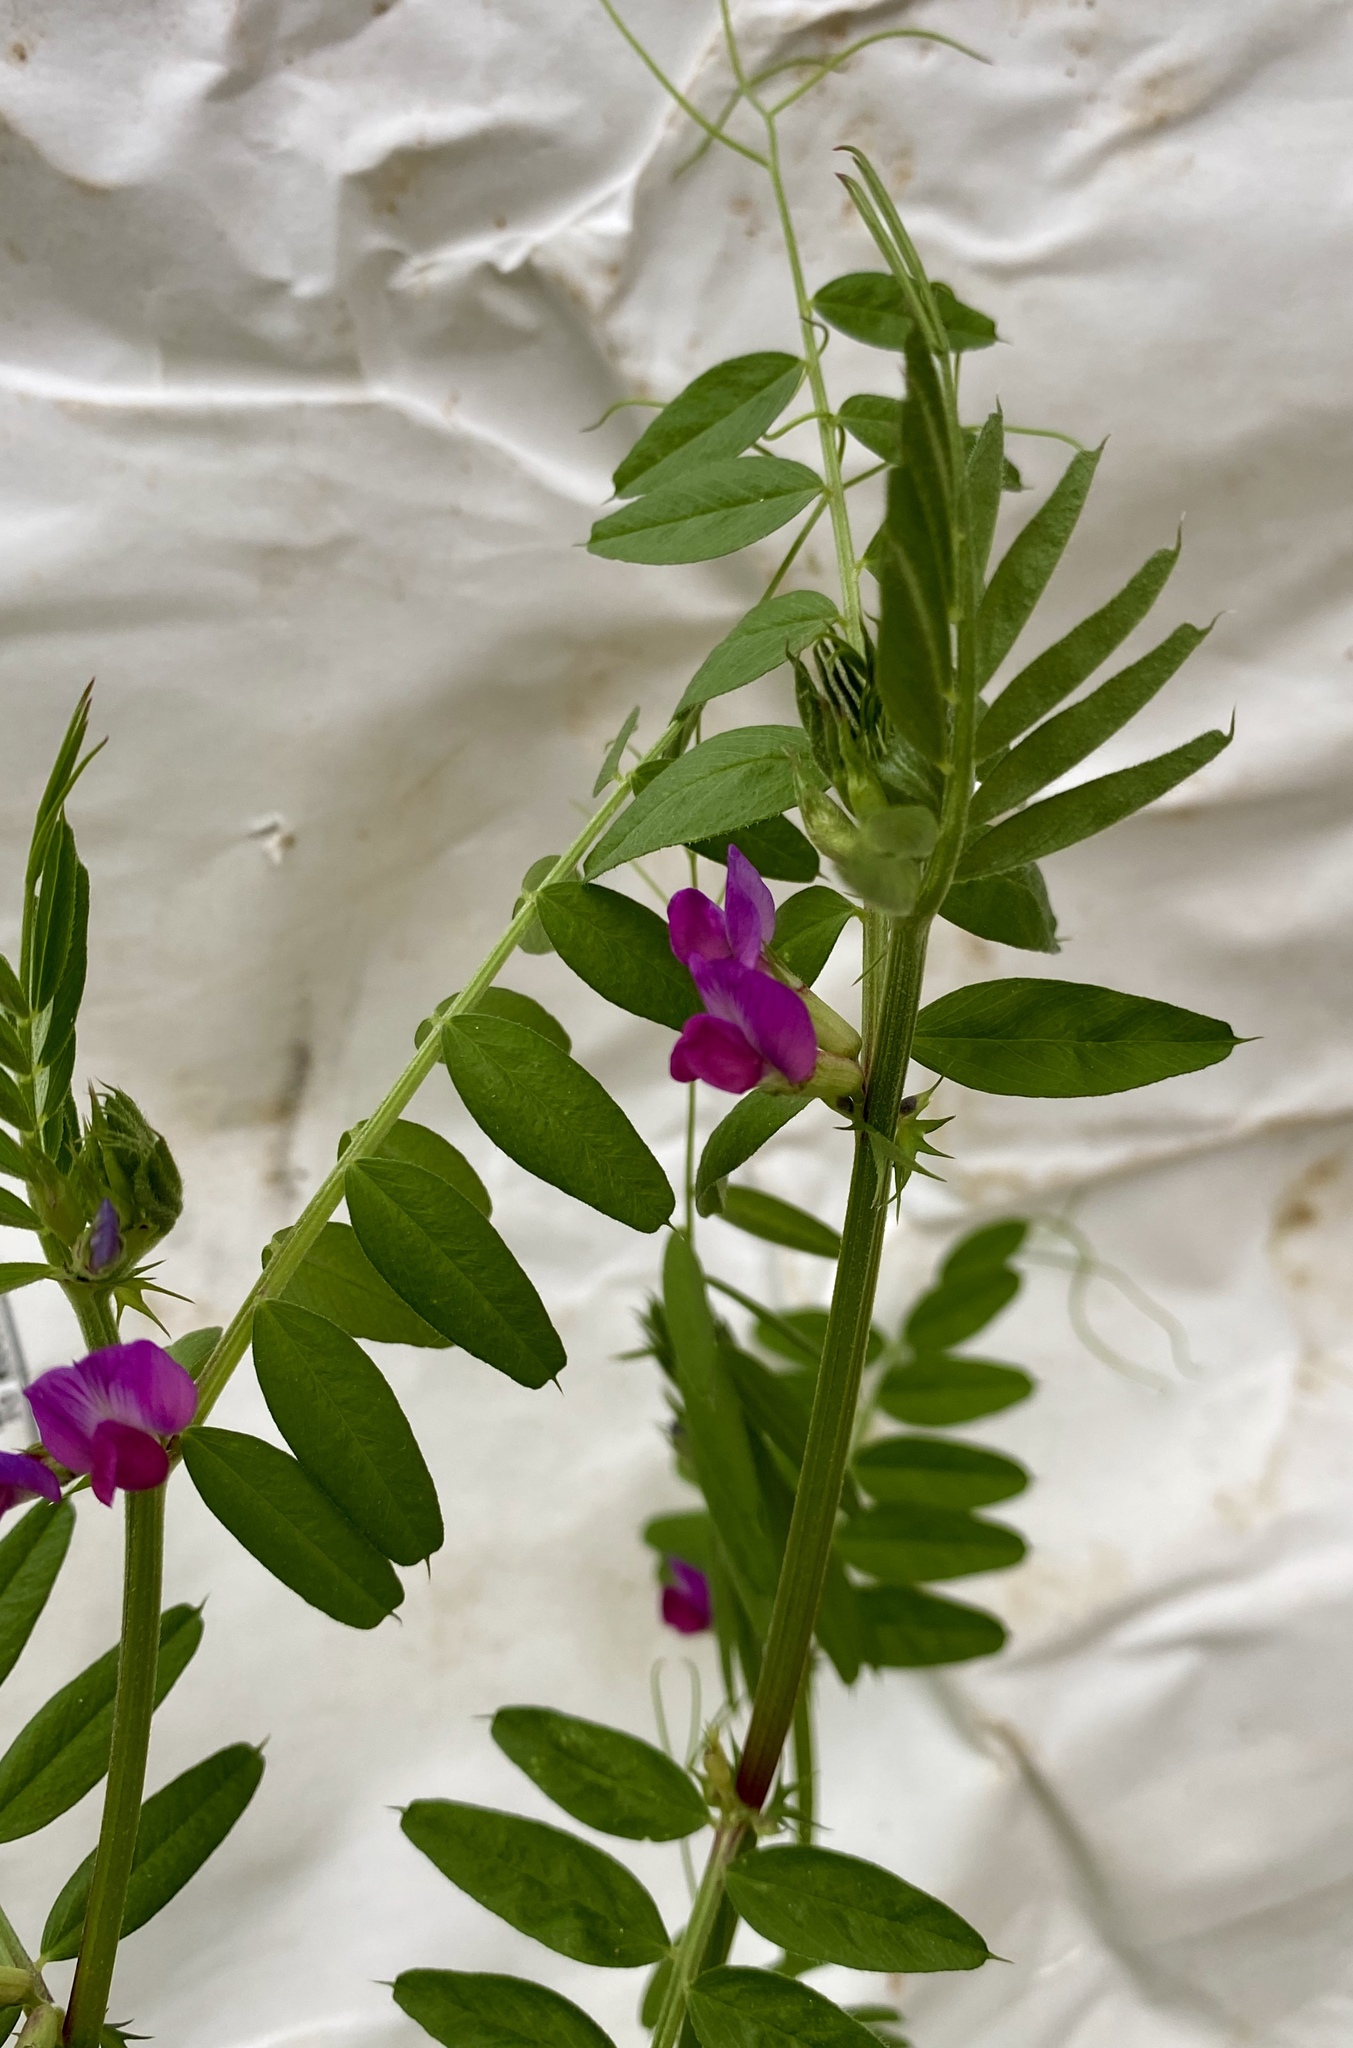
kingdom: Plantae
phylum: Tracheophyta
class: Magnoliopsida
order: Fabales
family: Fabaceae
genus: Vicia
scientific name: Vicia sativa
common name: Garden vetch
